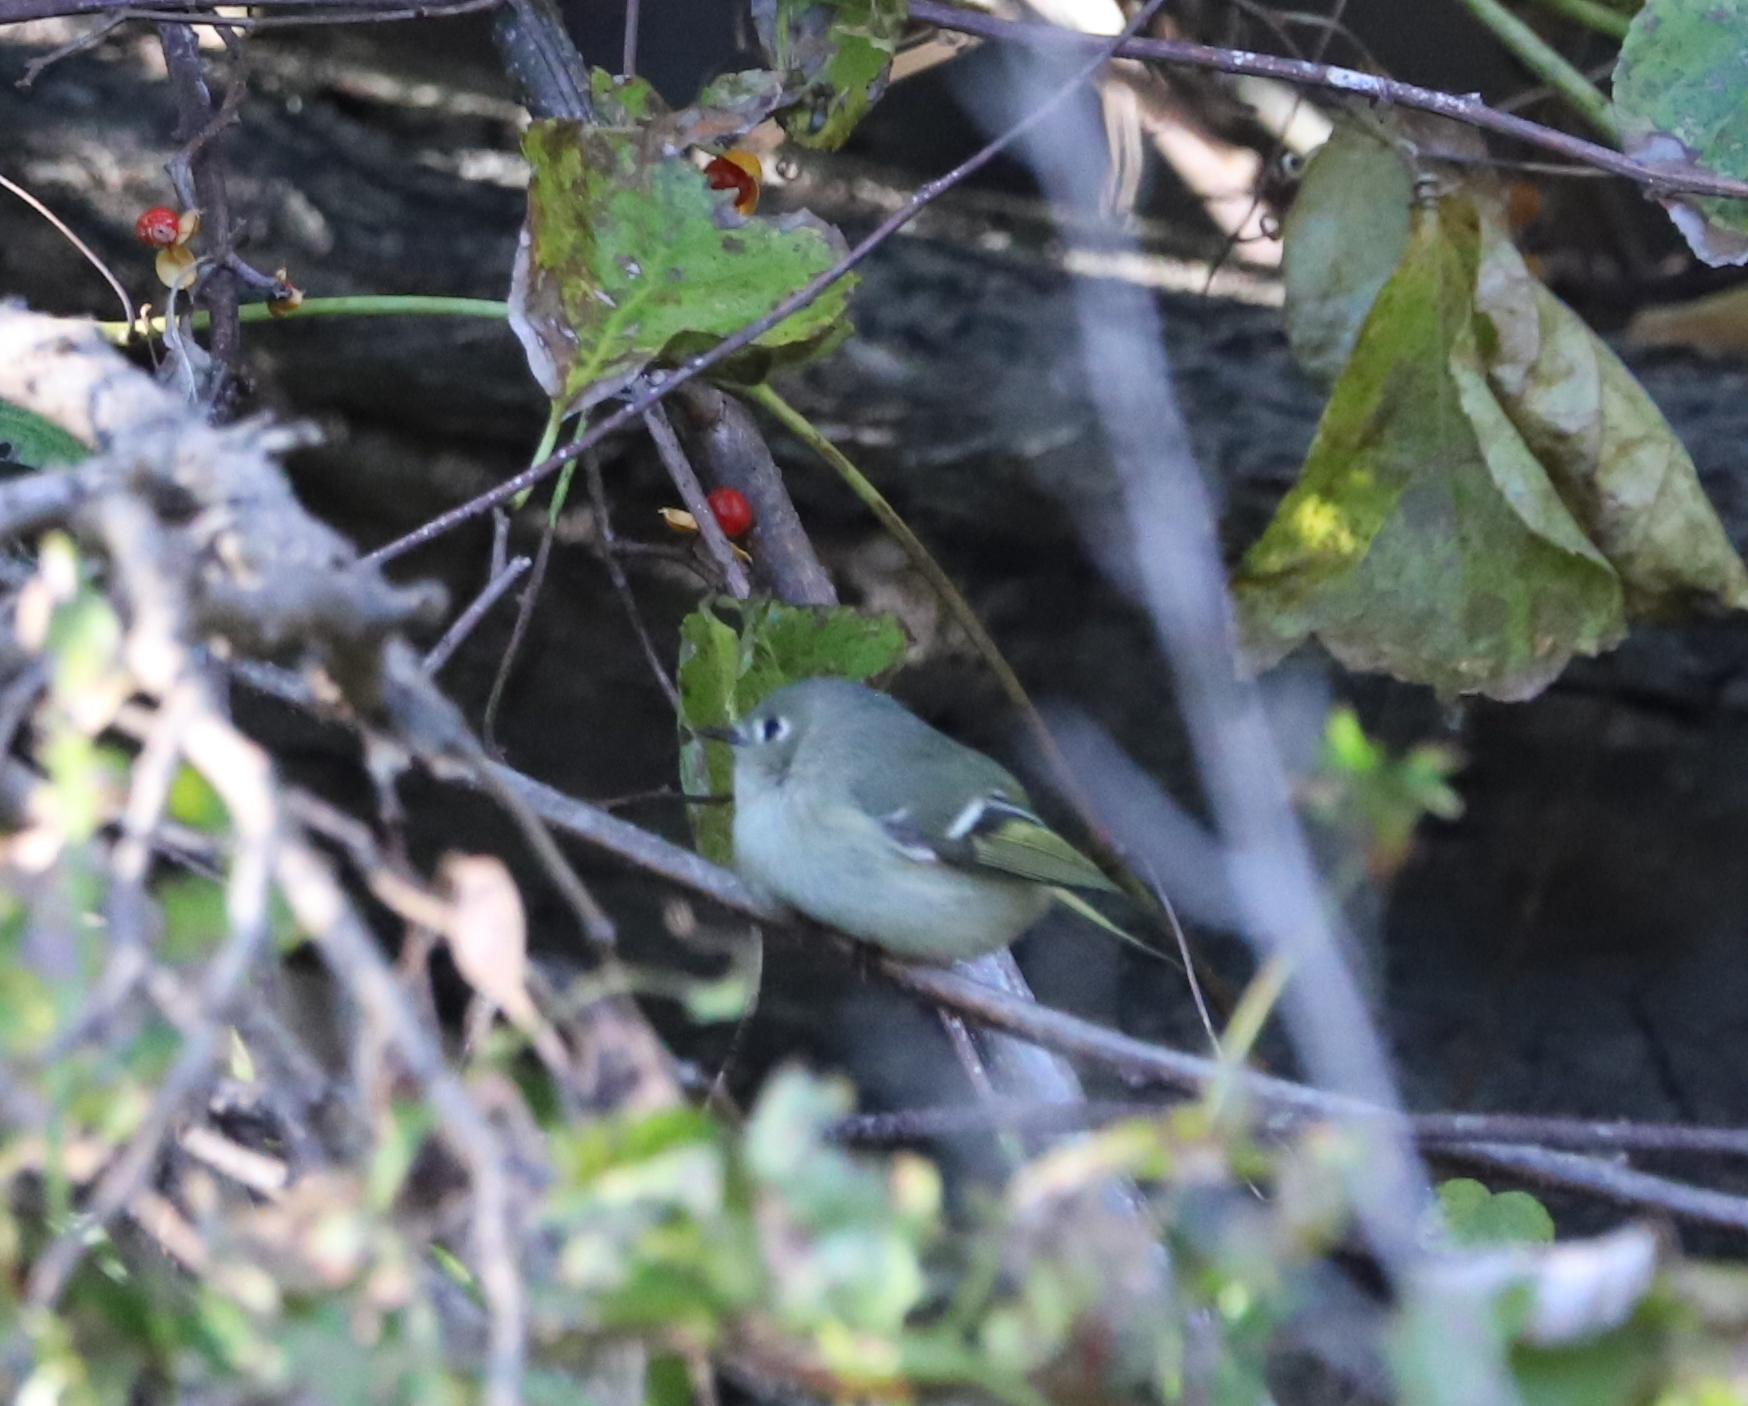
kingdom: Animalia
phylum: Chordata
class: Aves
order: Passeriformes
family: Regulidae
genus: Regulus
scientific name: Regulus calendula
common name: Ruby-crowned kinglet
